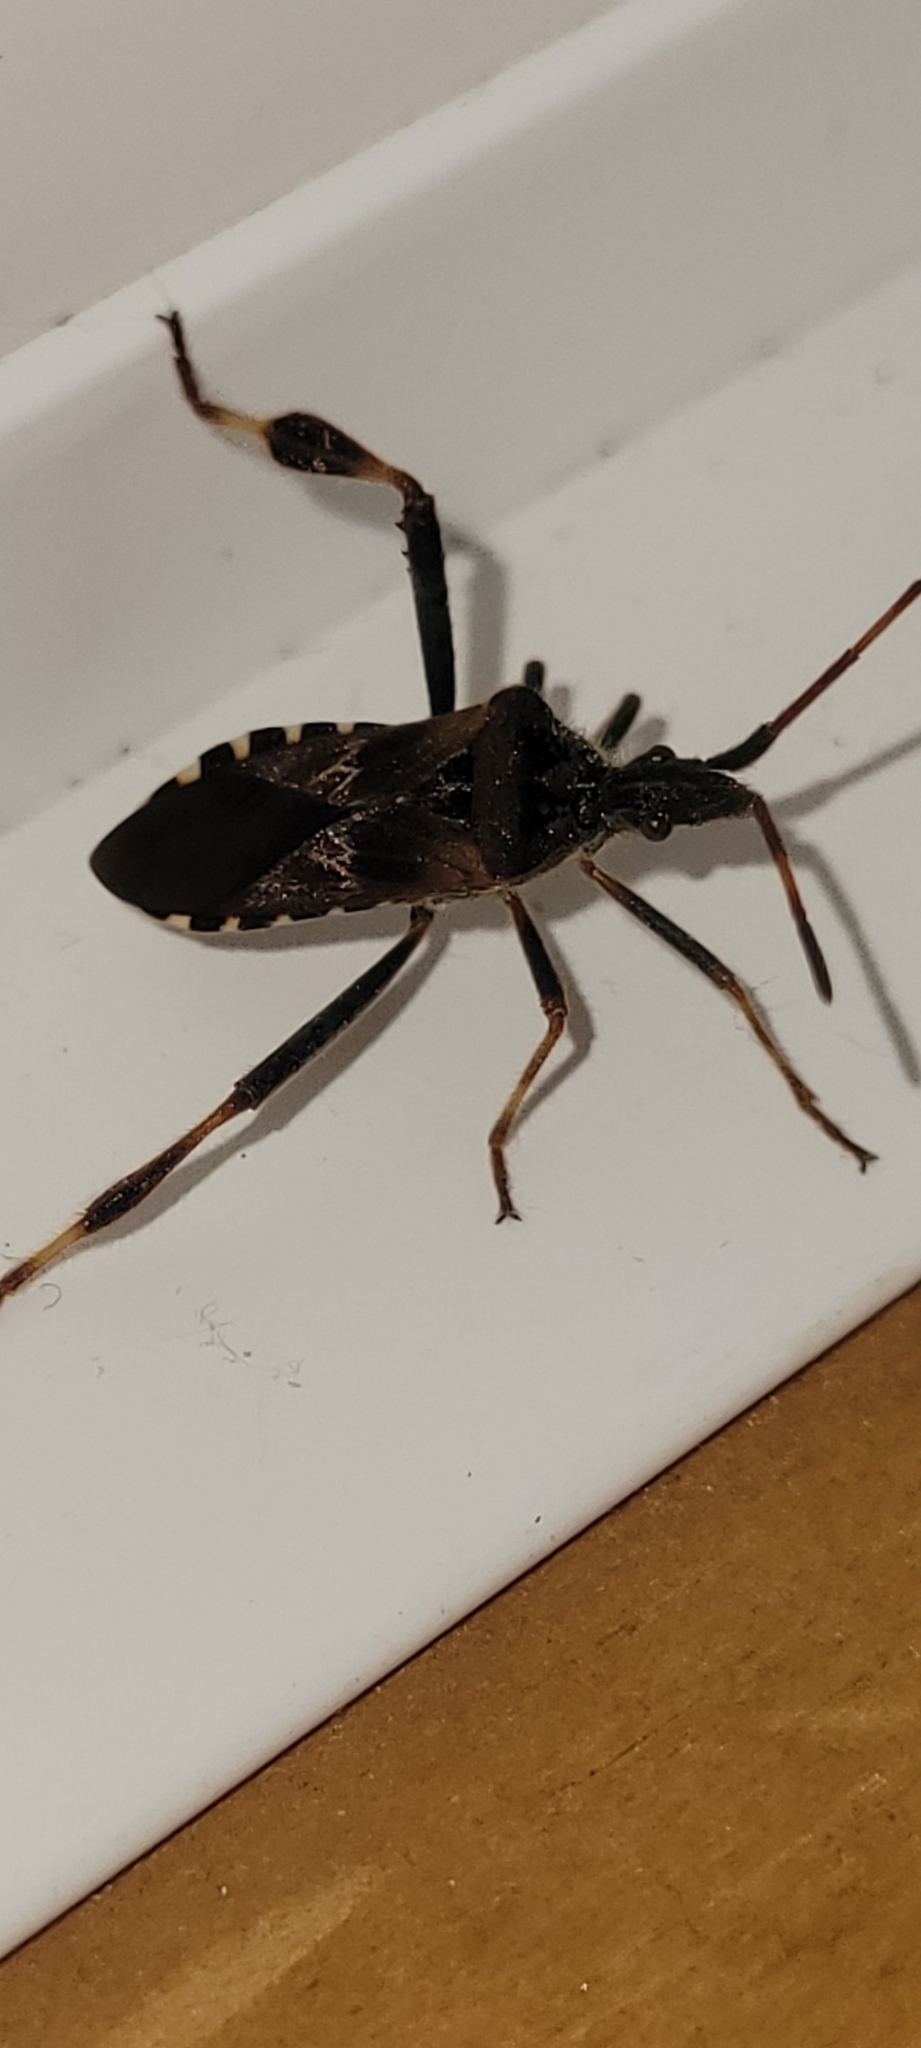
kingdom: Animalia
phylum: Arthropoda
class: Insecta
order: Hemiptera
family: Coreidae
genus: Leptoglossus
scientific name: Leptoglossus occidentalis
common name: Western conifer-seed bug
